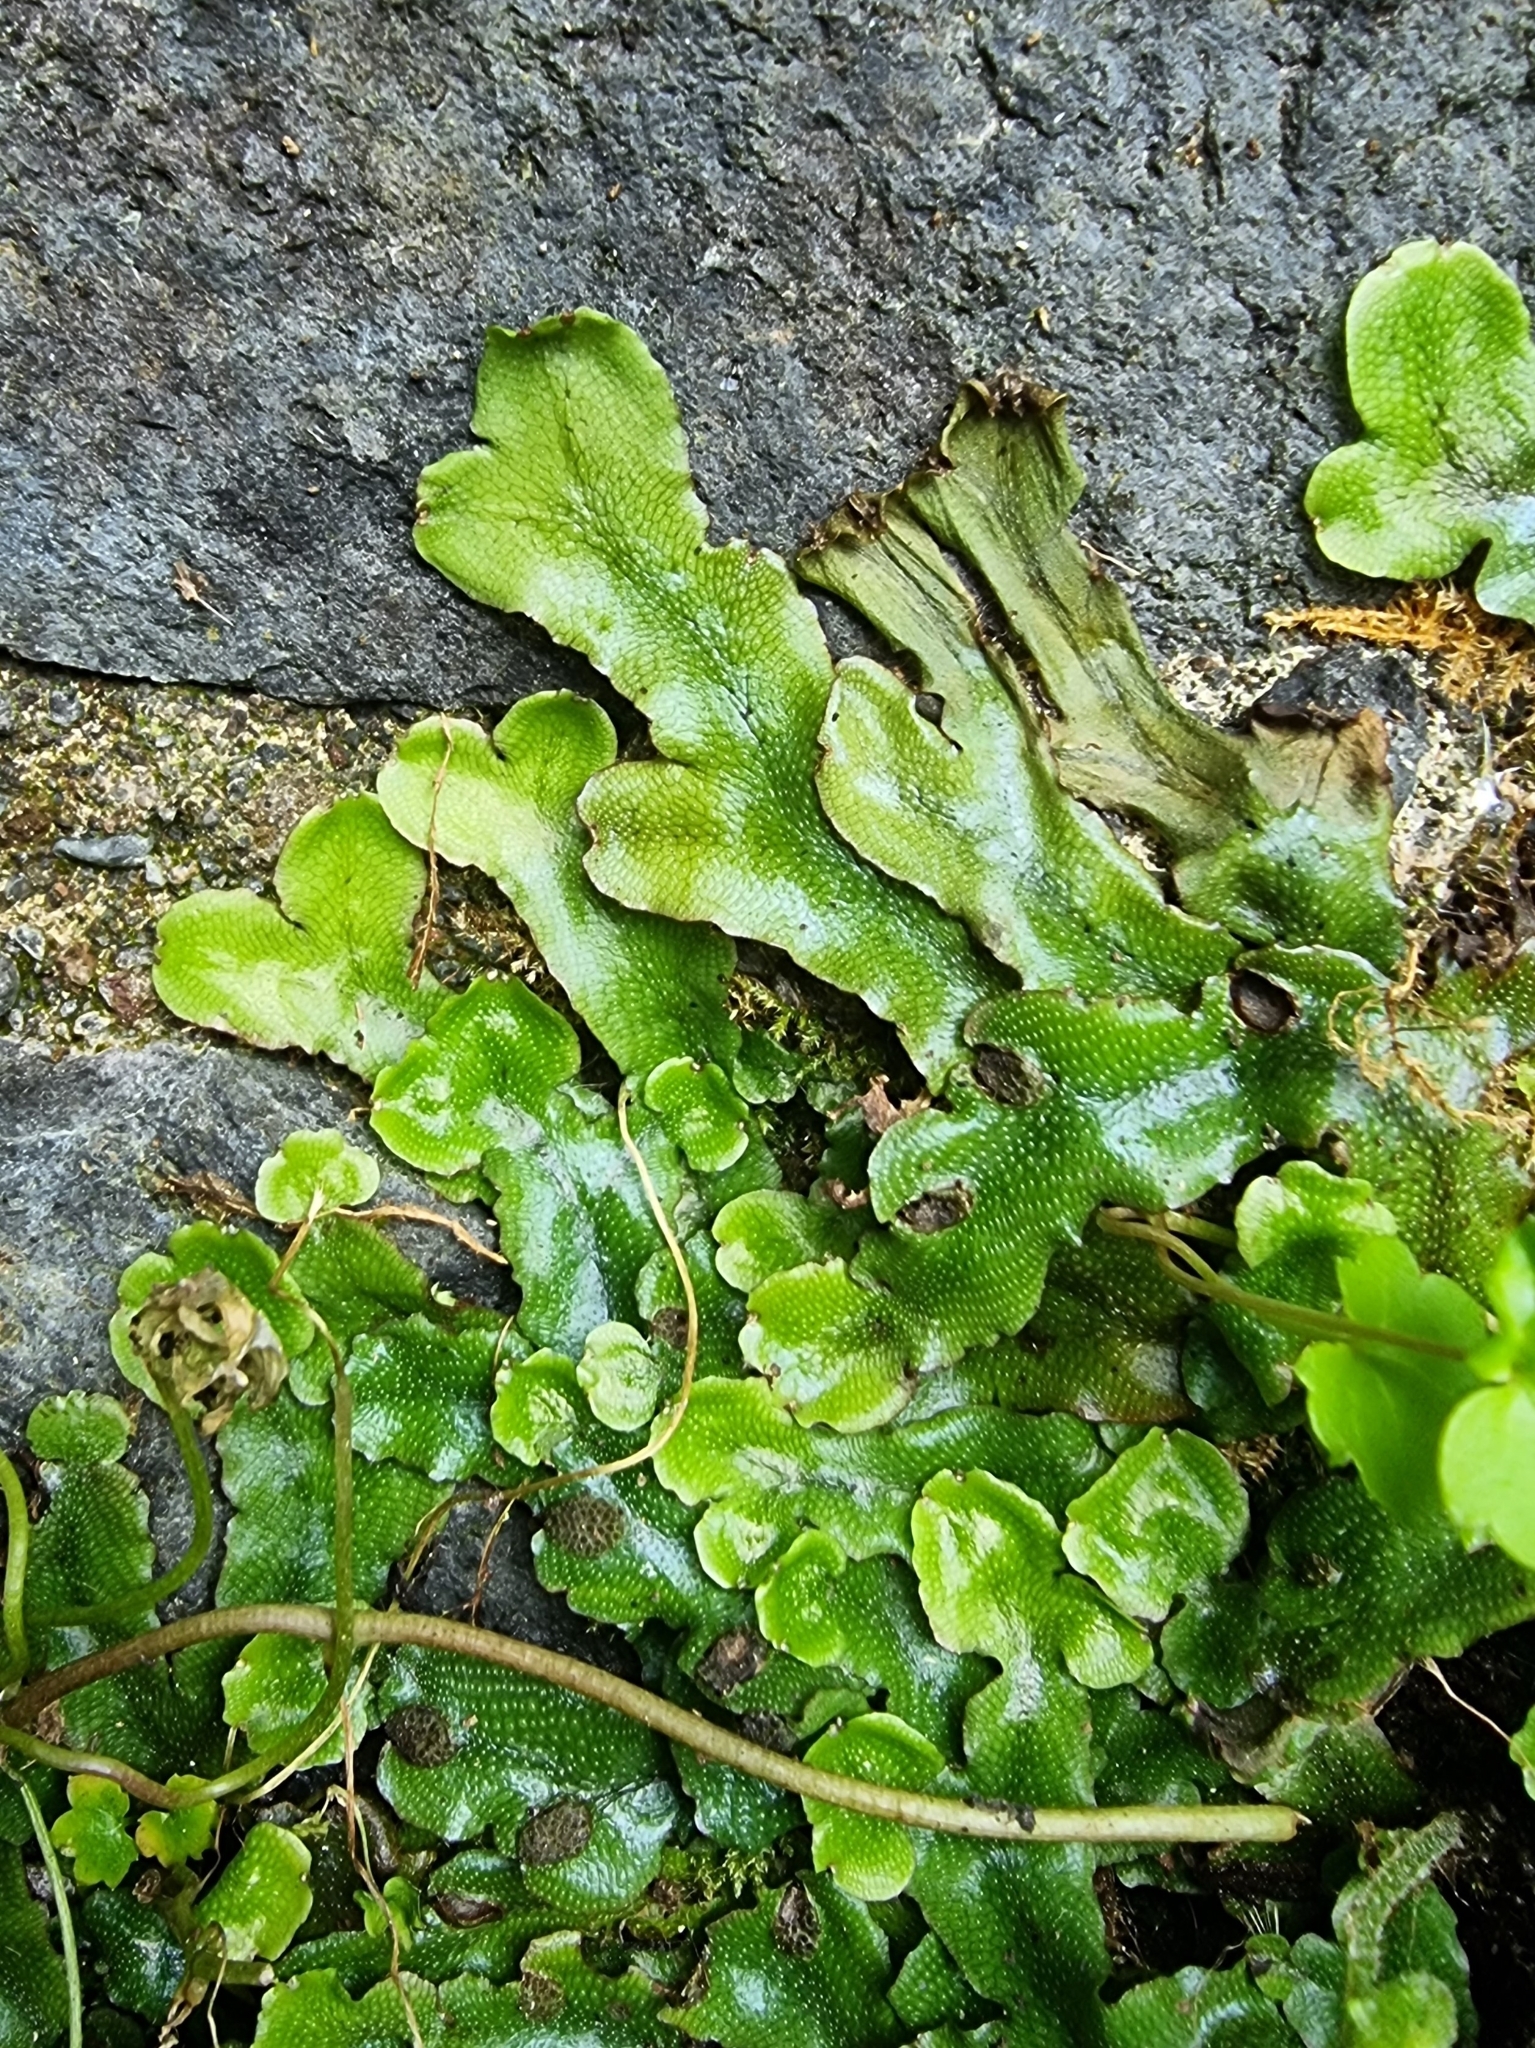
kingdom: Plantae
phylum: Marchantiophyta
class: Marchantiopsida
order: Marchantiales
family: Conocephalaceae
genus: Conocephalum
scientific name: Conocephalum conicum
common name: Great scented liverwort
